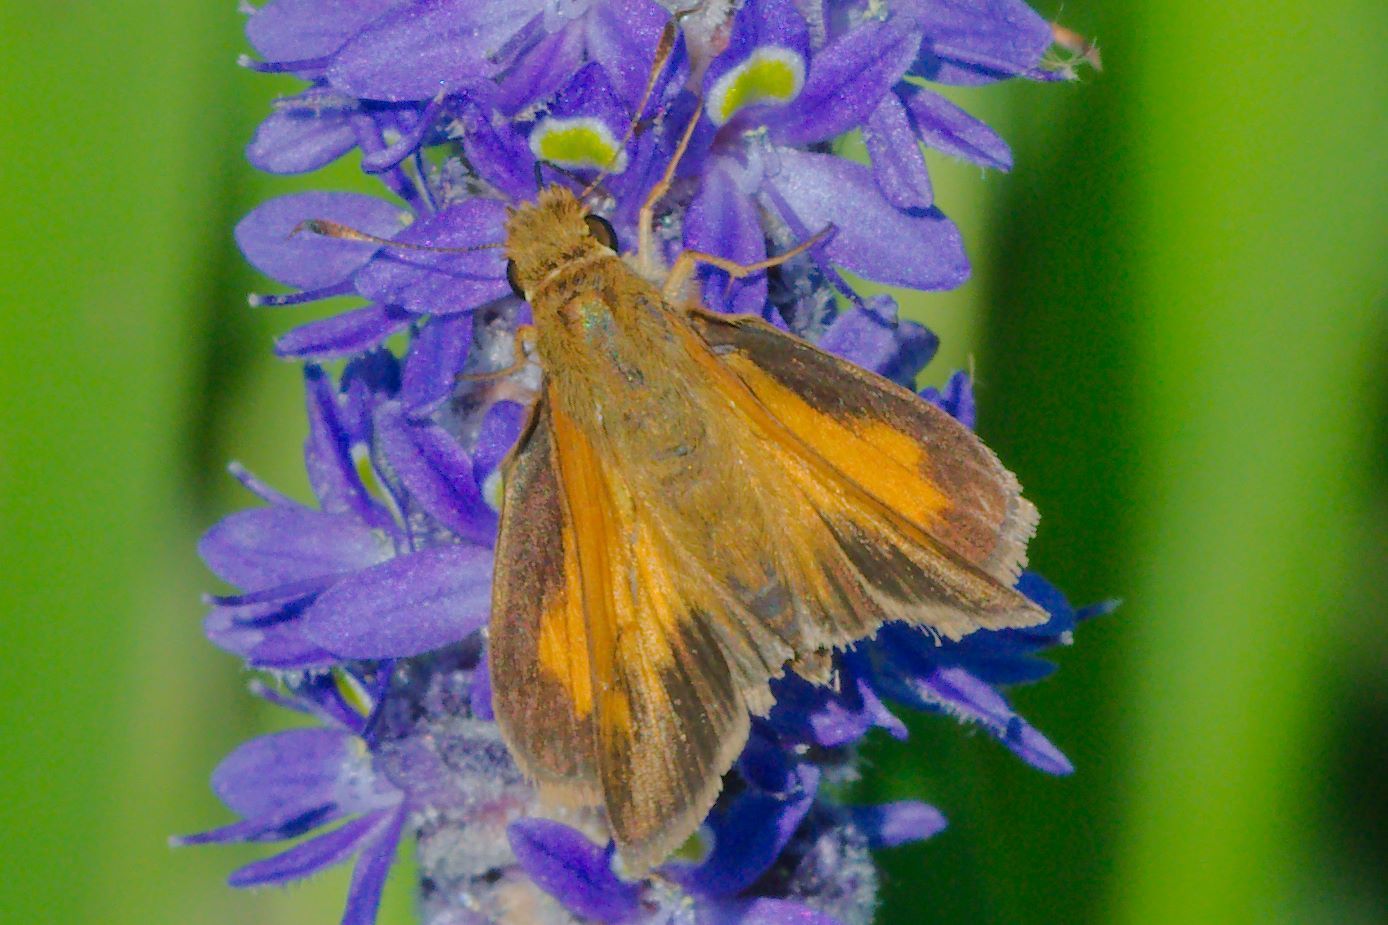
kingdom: Animalia
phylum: Arthropoda
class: Insecta
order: Lepidoptera
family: Hesperiidae
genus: Poanes
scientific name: Poanes aaroni
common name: Aaron's skipper
